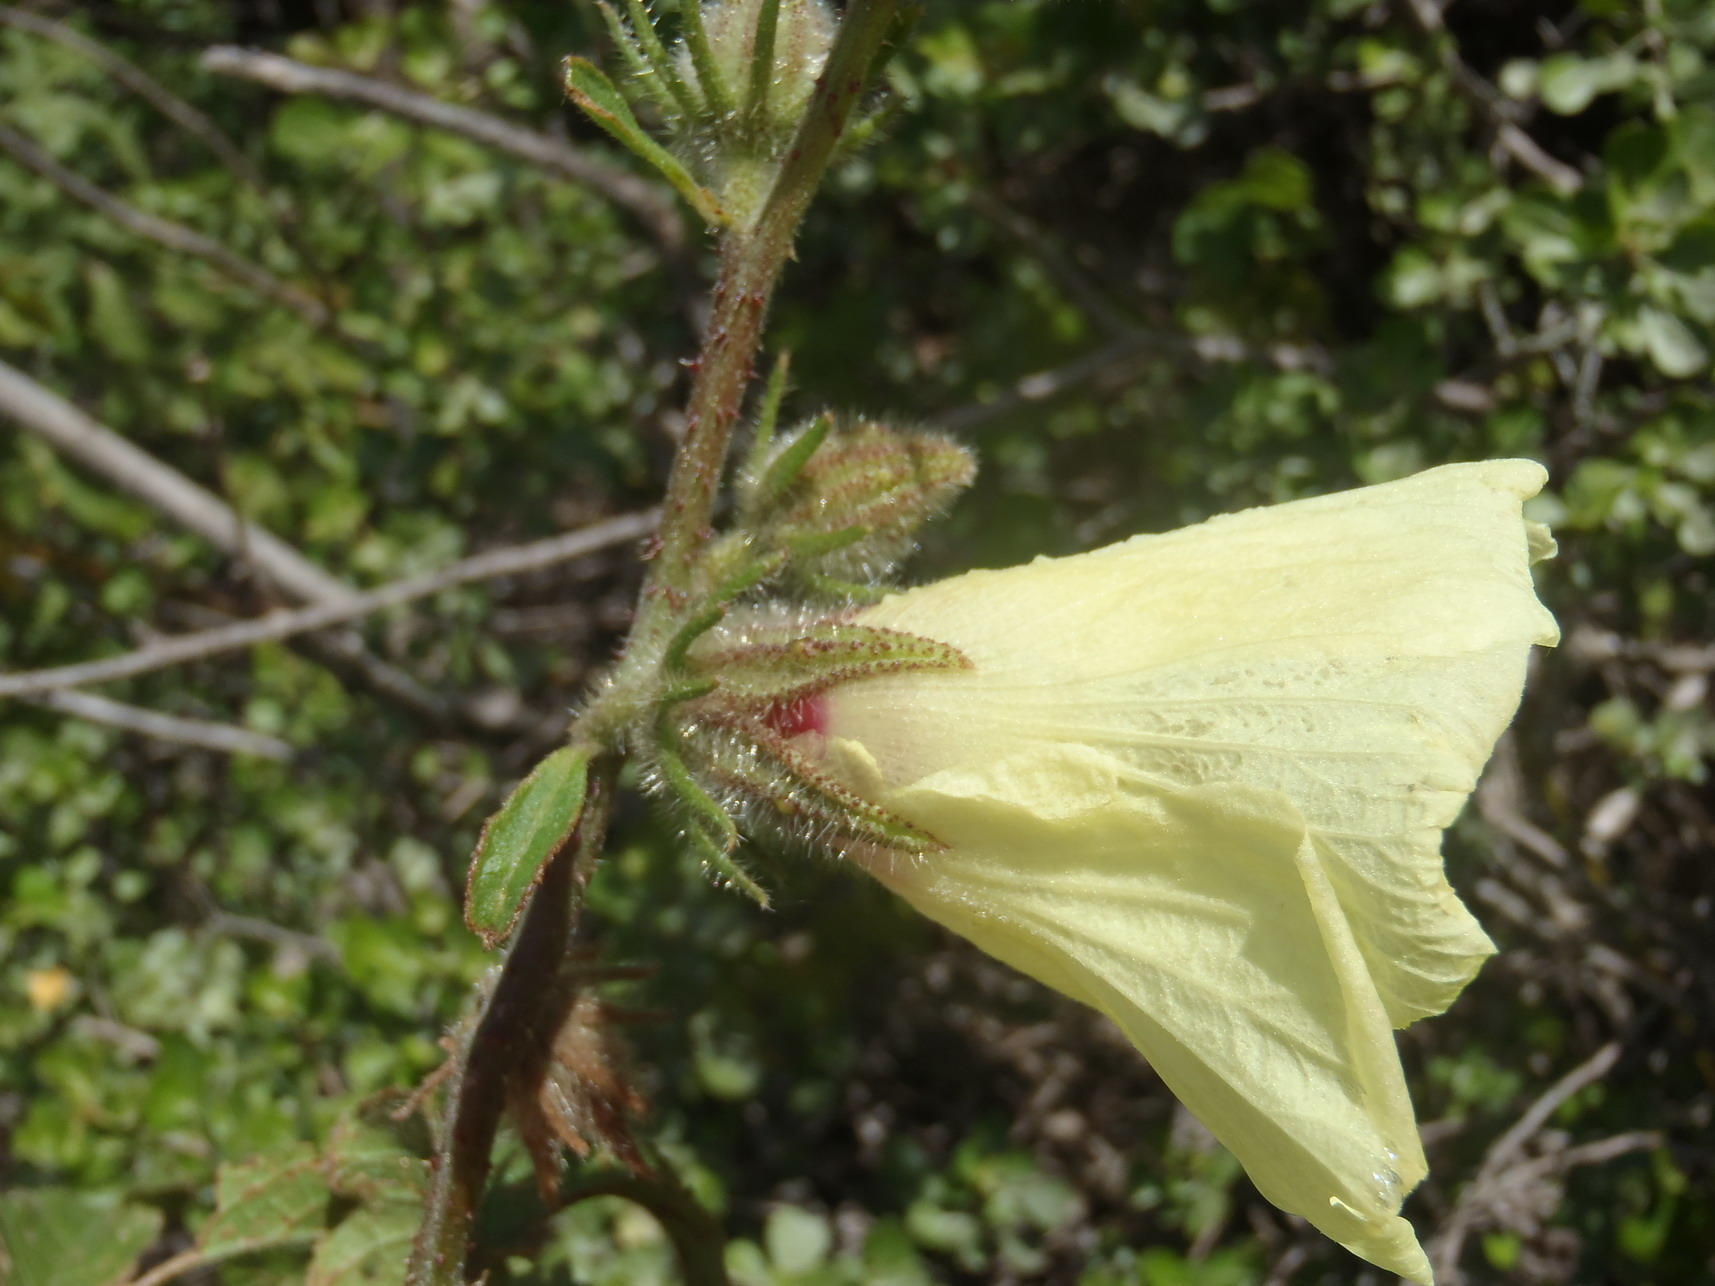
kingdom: Plantae
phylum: Tracheophyta
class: Magnoliopsida
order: Malvales
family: Malvaceae
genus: Hibiscus
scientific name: Hibiscus diversifolius
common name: Cape hibiscus
